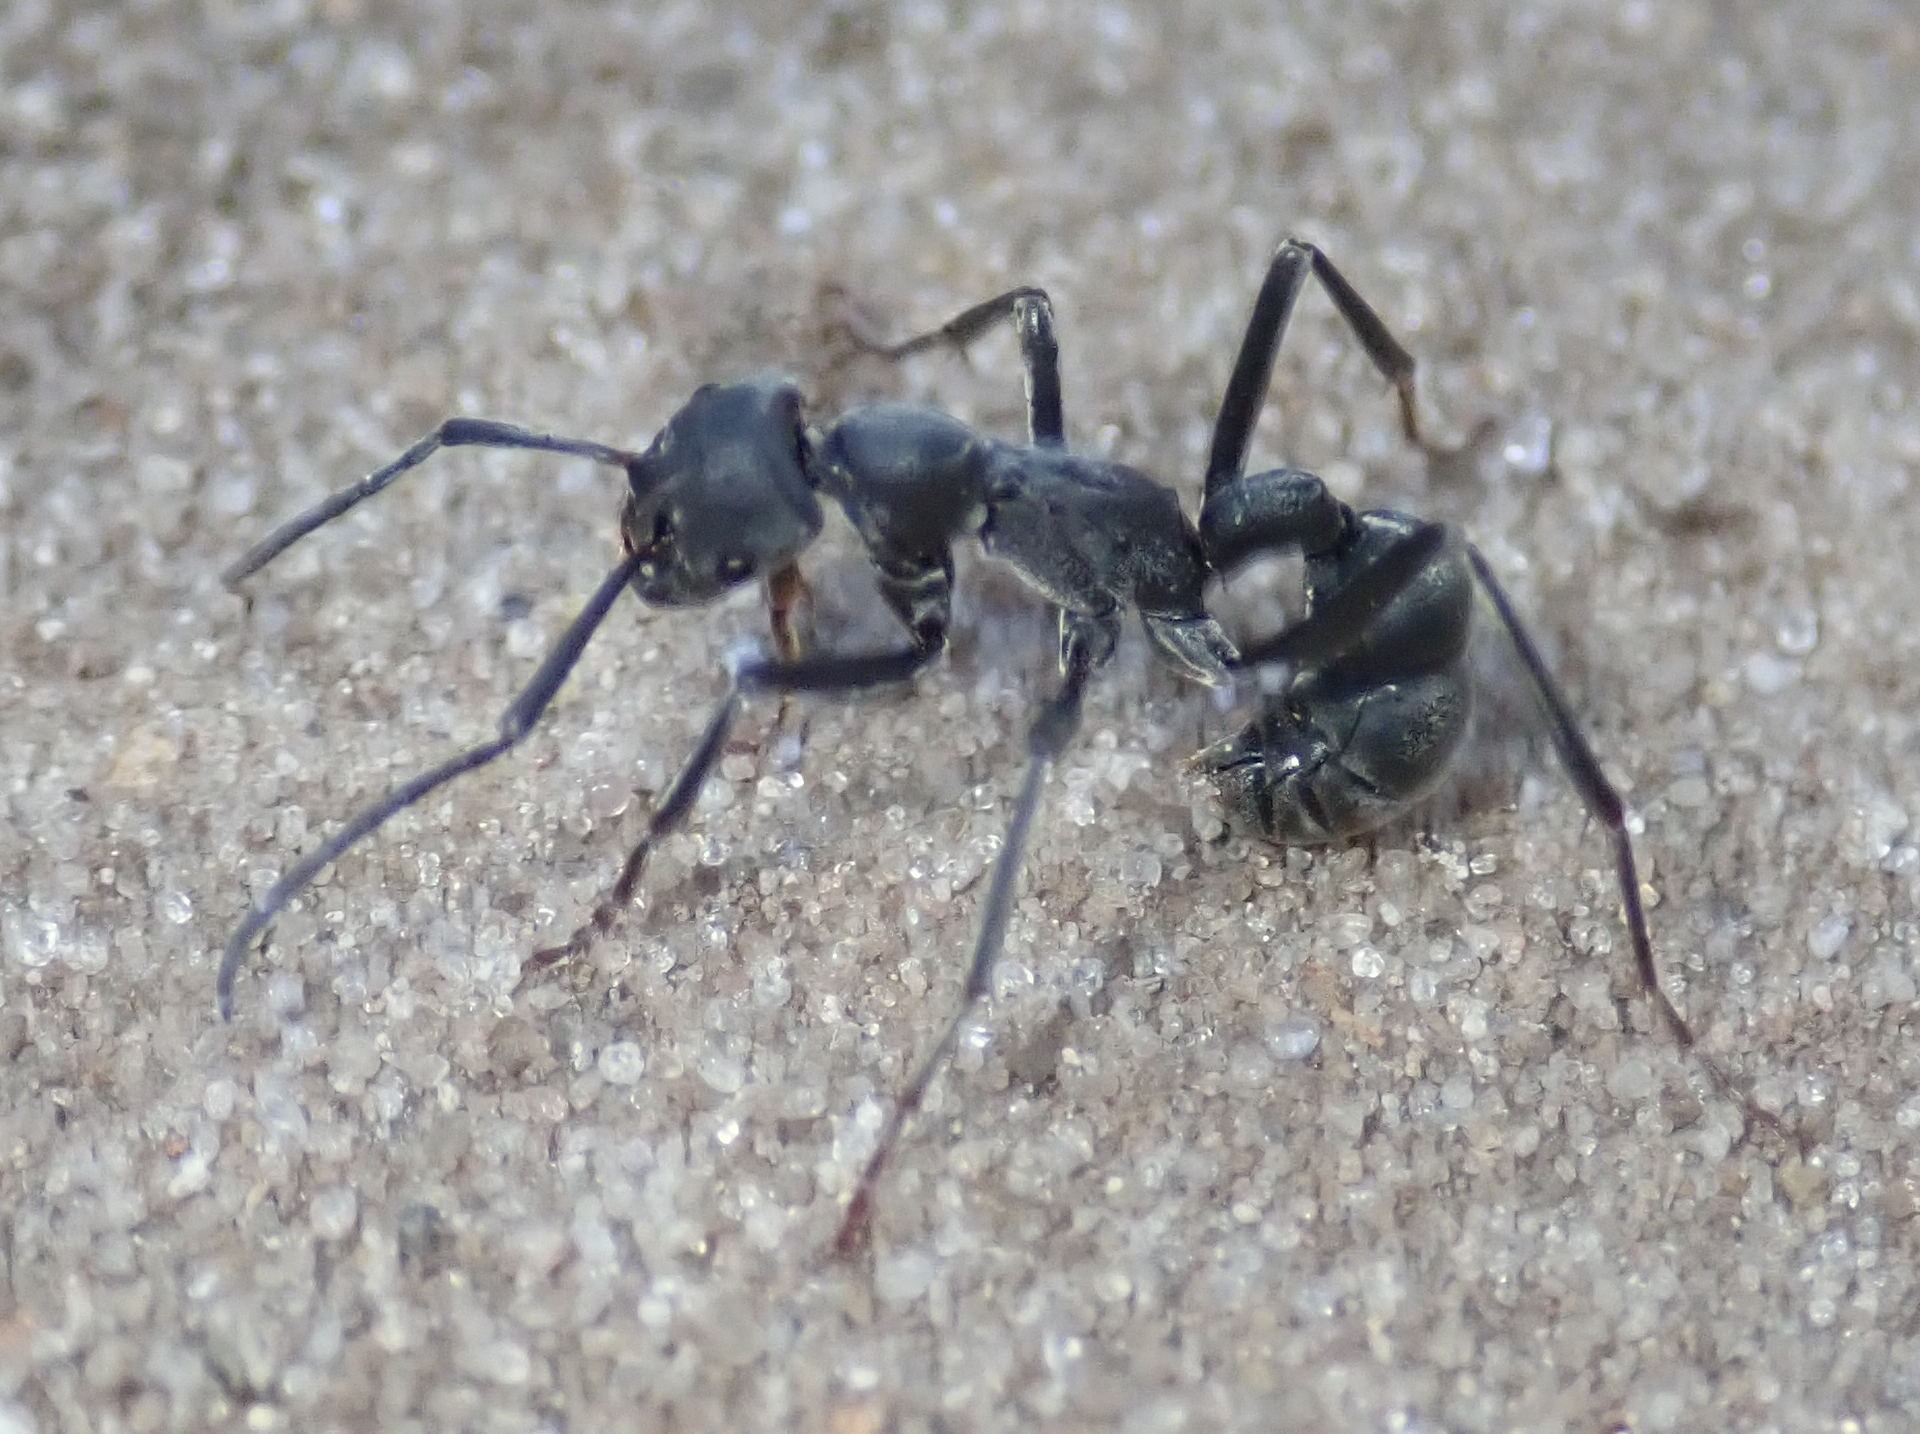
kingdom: Animalia
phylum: Arthropoda
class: Insecta
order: Hymenoptera
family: Formicidae
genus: Platythyrea
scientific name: Platythyrea lamellosa
